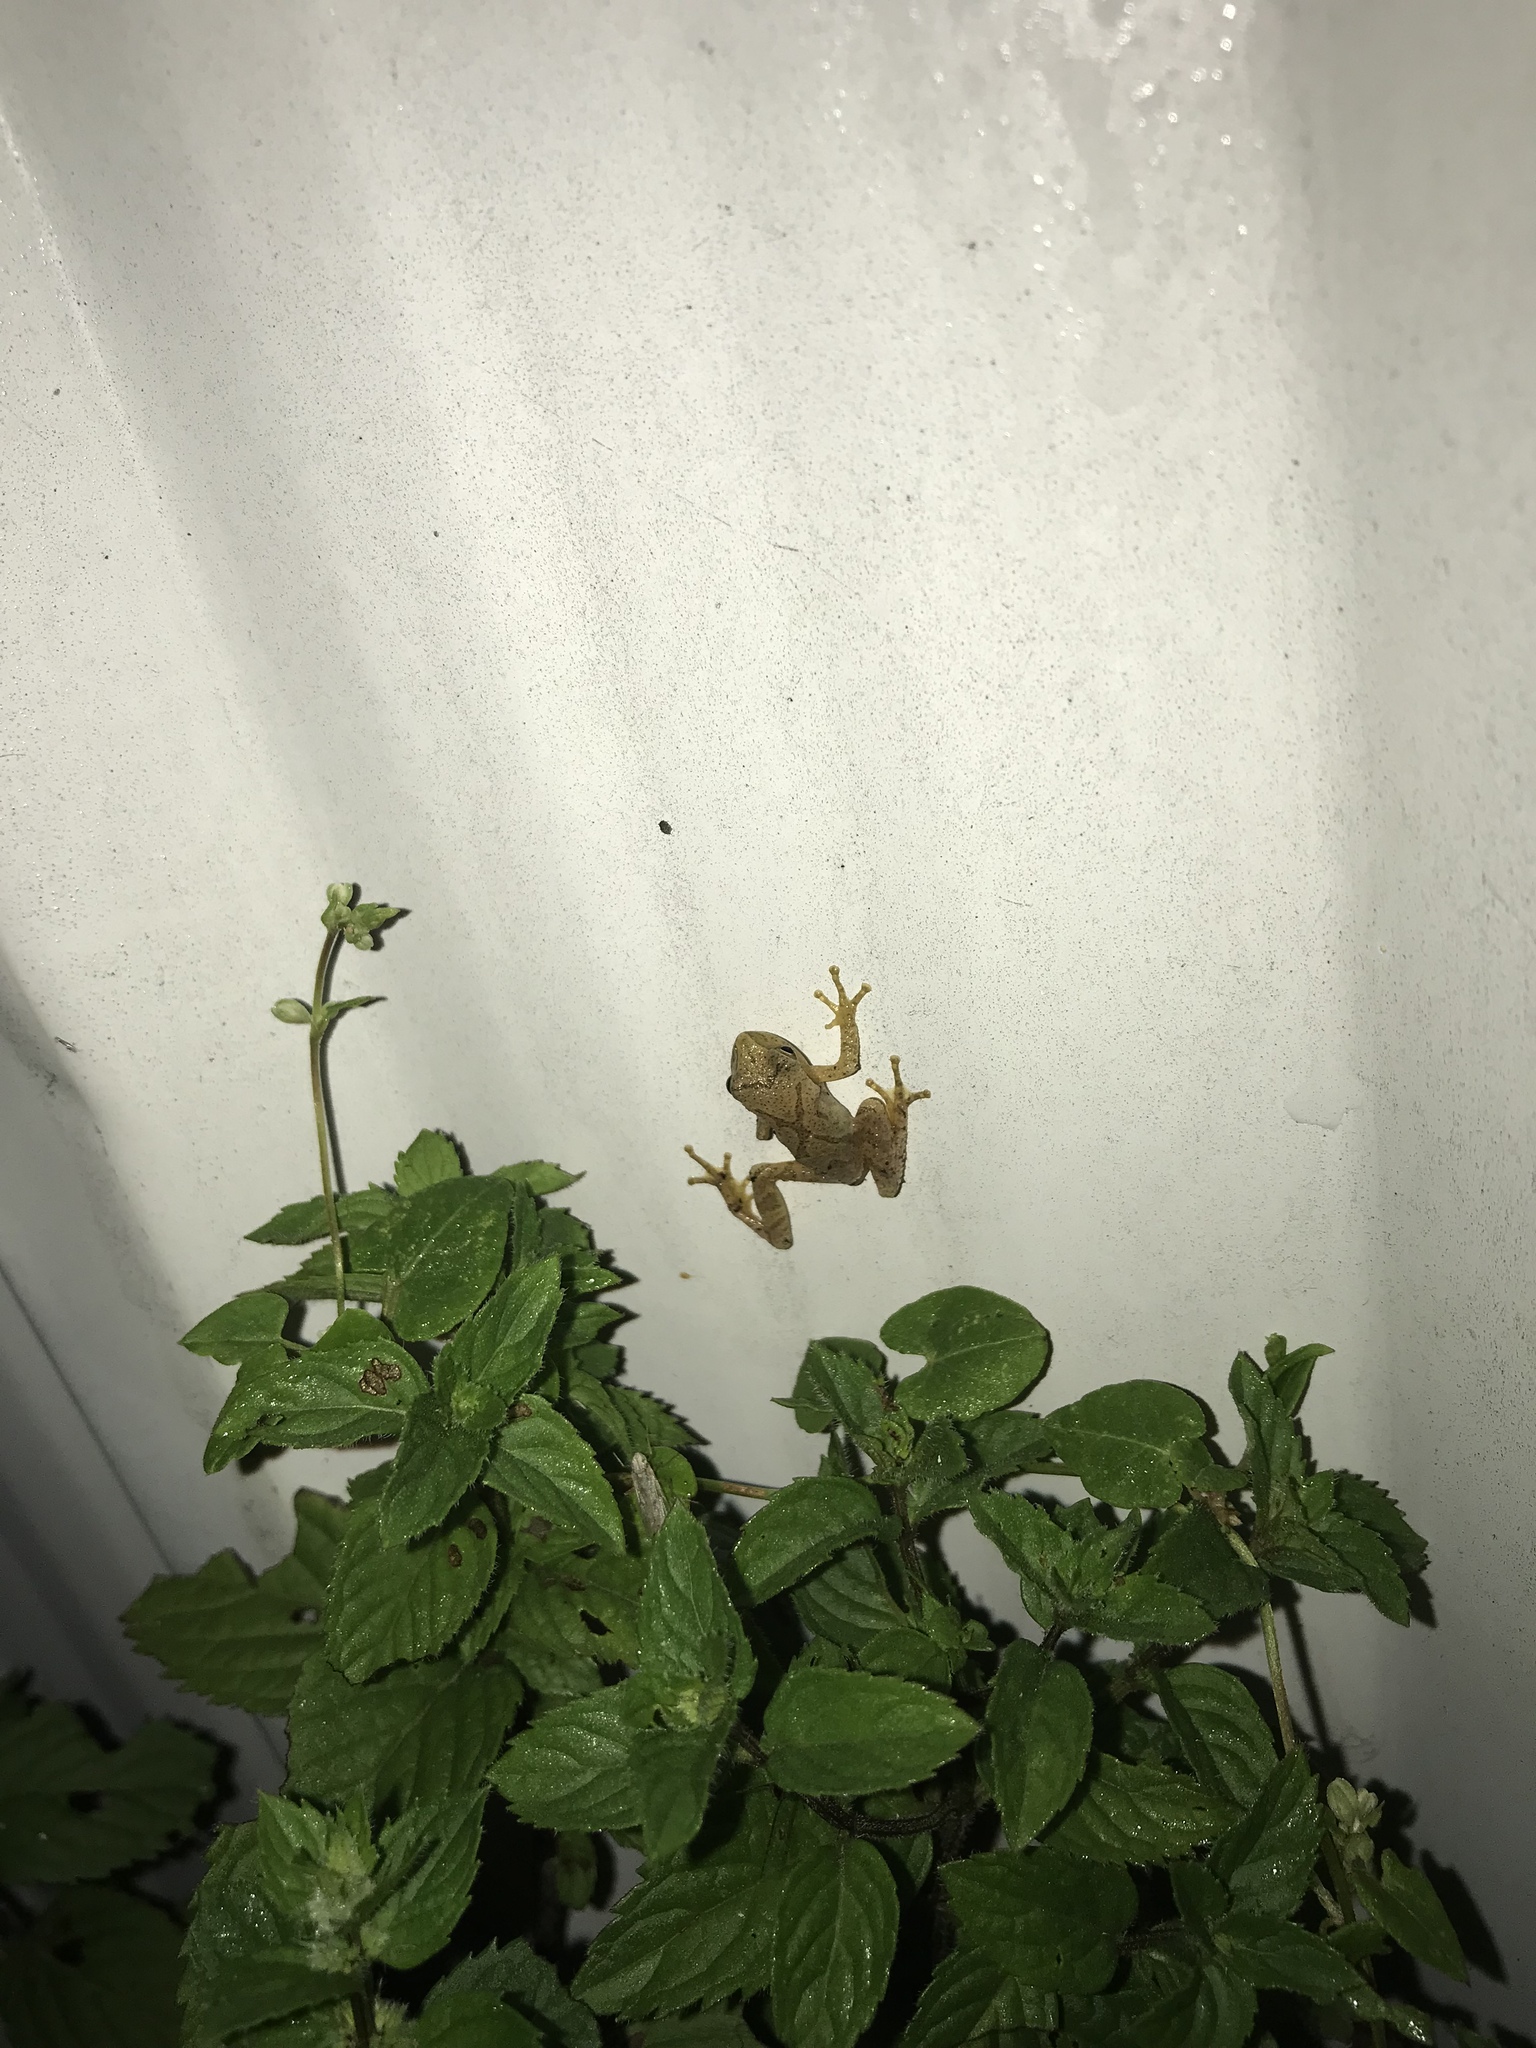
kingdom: Animalia
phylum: Chordata
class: Amphibia
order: Anura
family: Hylidae
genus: Pseudacris
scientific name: Pseudacris crucifer
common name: Spring peeper
